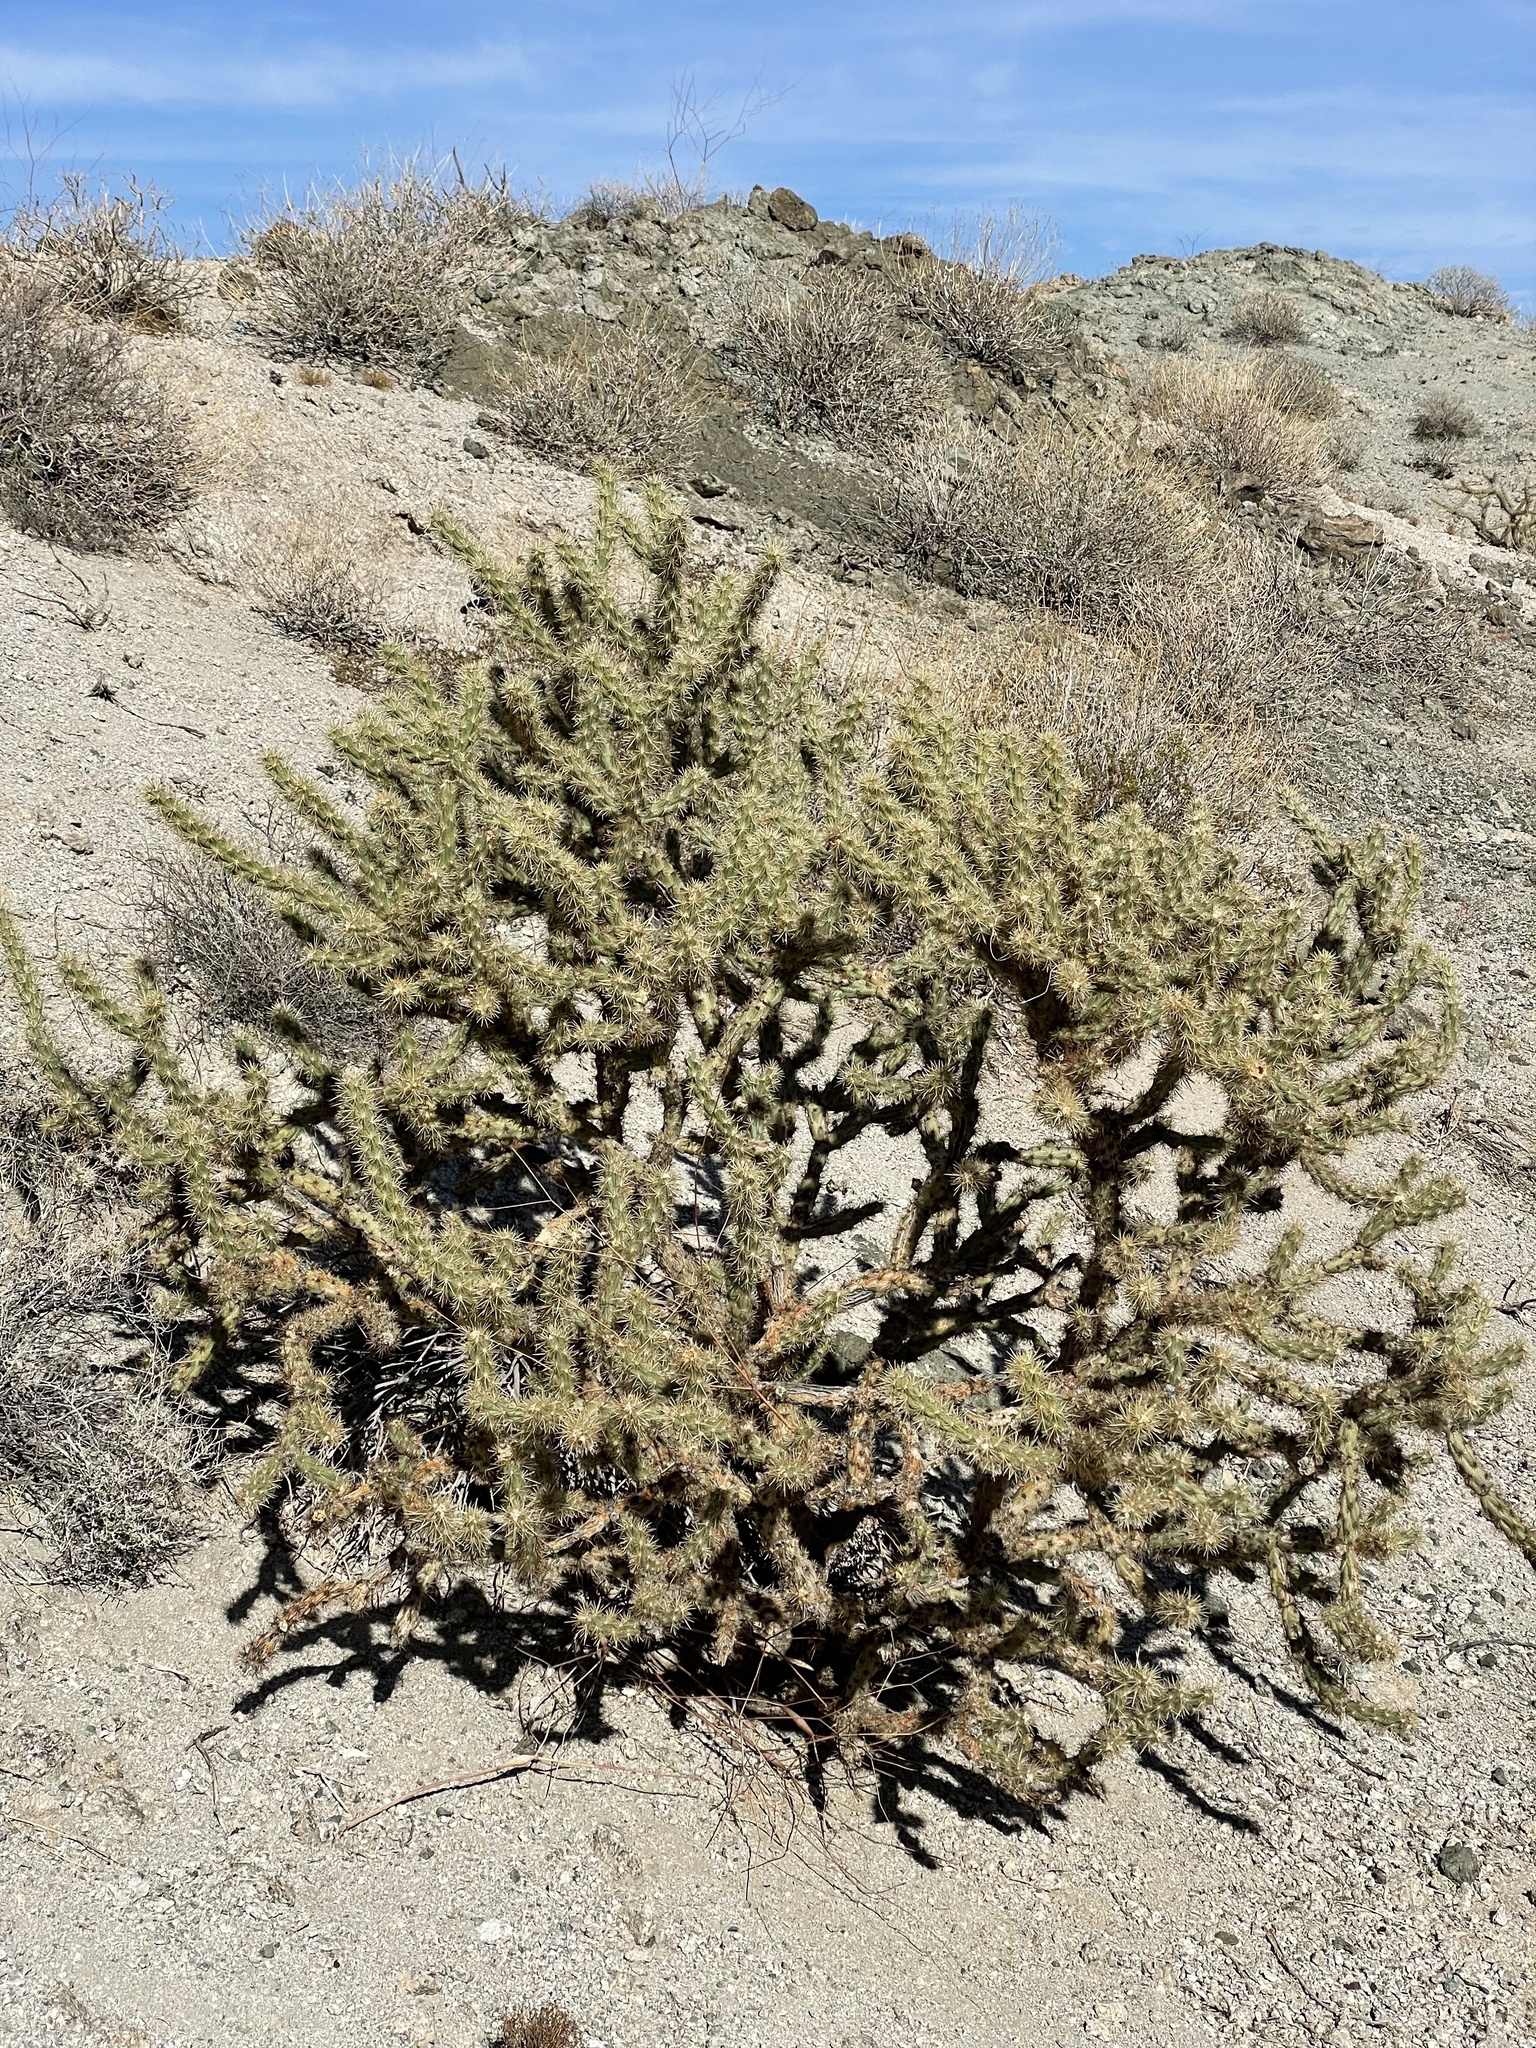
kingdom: Plantae
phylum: Tracheophyta
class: Magnoliopsida
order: Caryophyllales
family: Cactaceae
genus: Cylindropuntia
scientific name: Cylindropuntia acanthocarpa
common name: Buckhorn cholla
